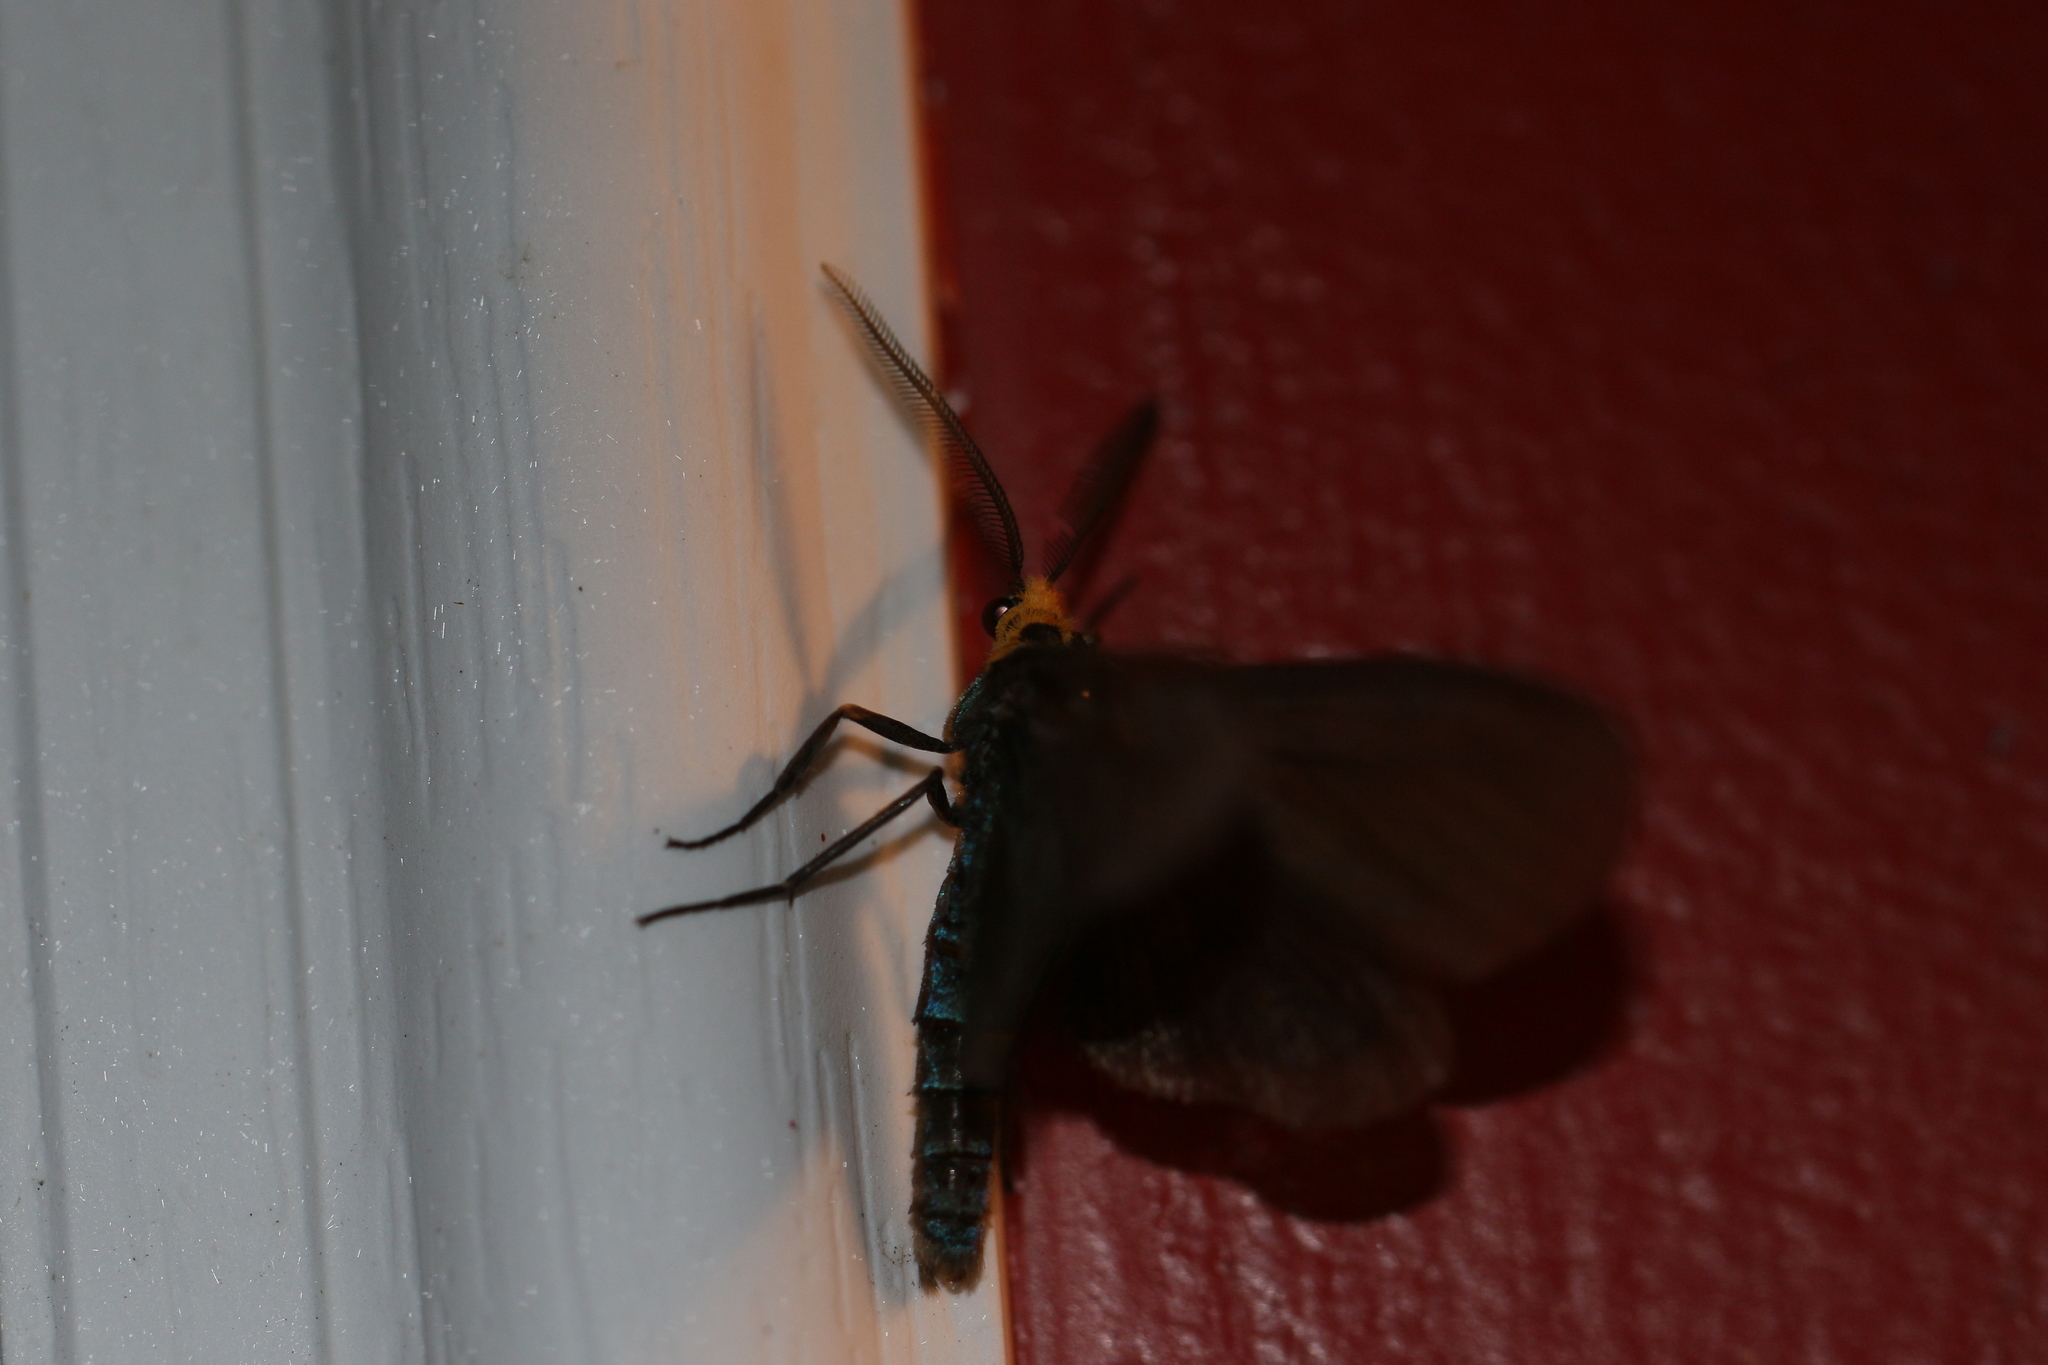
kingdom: Animalia
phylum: Arthropoda
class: Insecta
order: Lepidoptera
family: Erebidae
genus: Ctenucha
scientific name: Ctenucha virginica
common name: Virginia ctenucha moth
